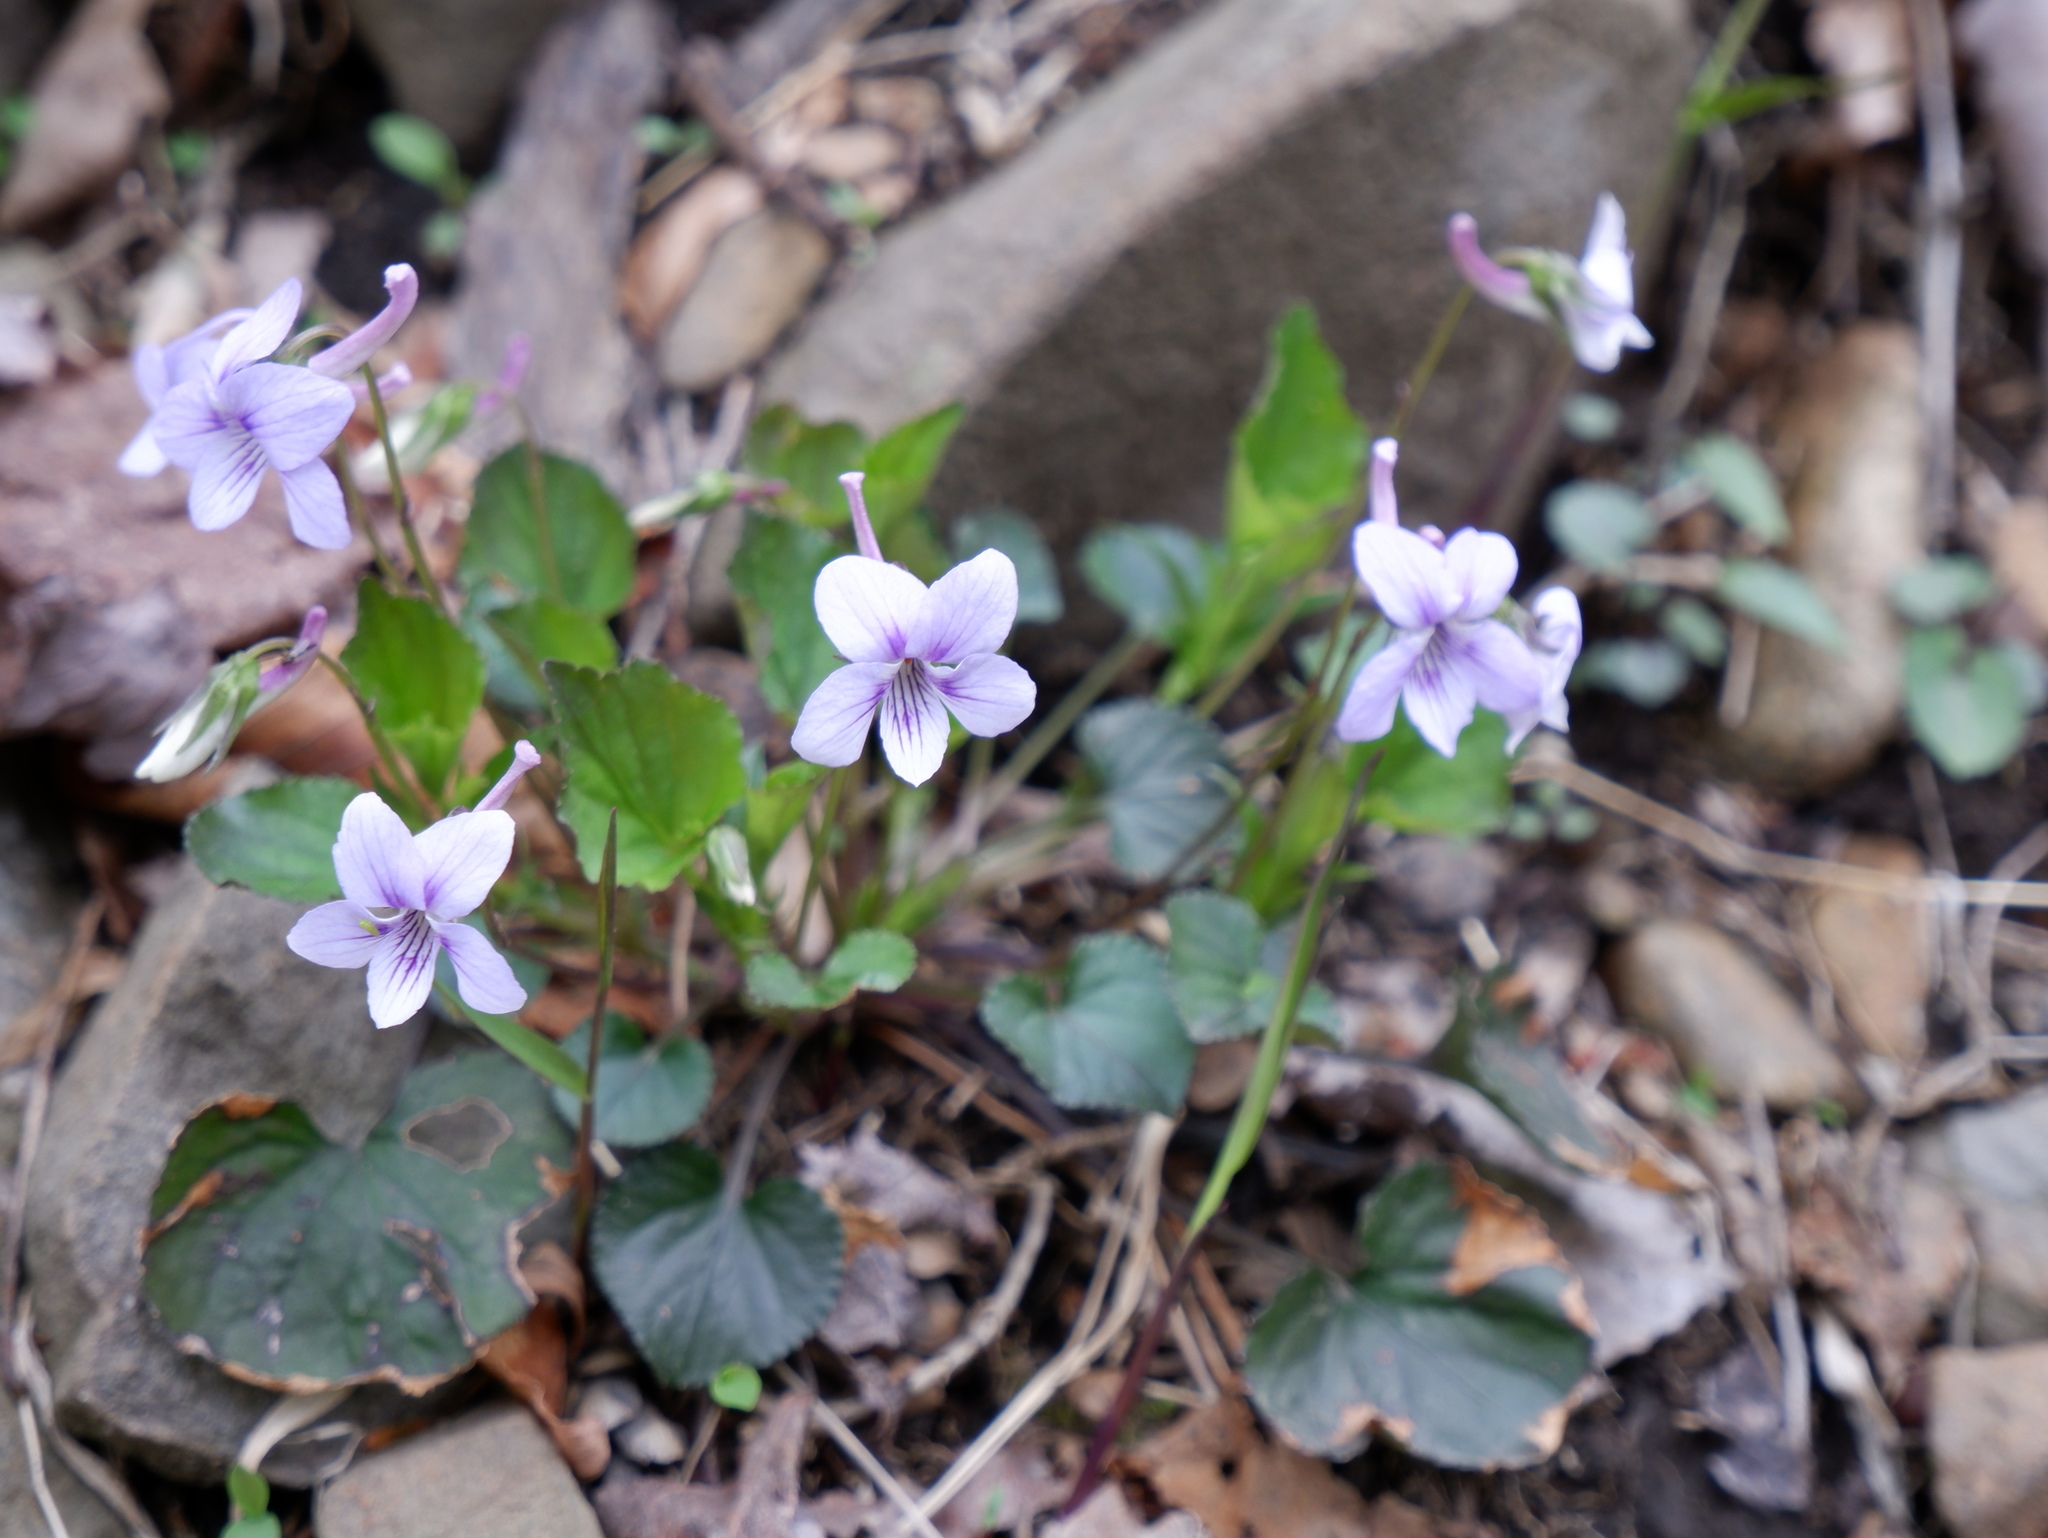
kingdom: Plantae
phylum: Tracheophyta
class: Magnoliopsida
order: Malpighiales
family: Violaceae
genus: Viola
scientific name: Viola rostrata
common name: Long-spur violet
